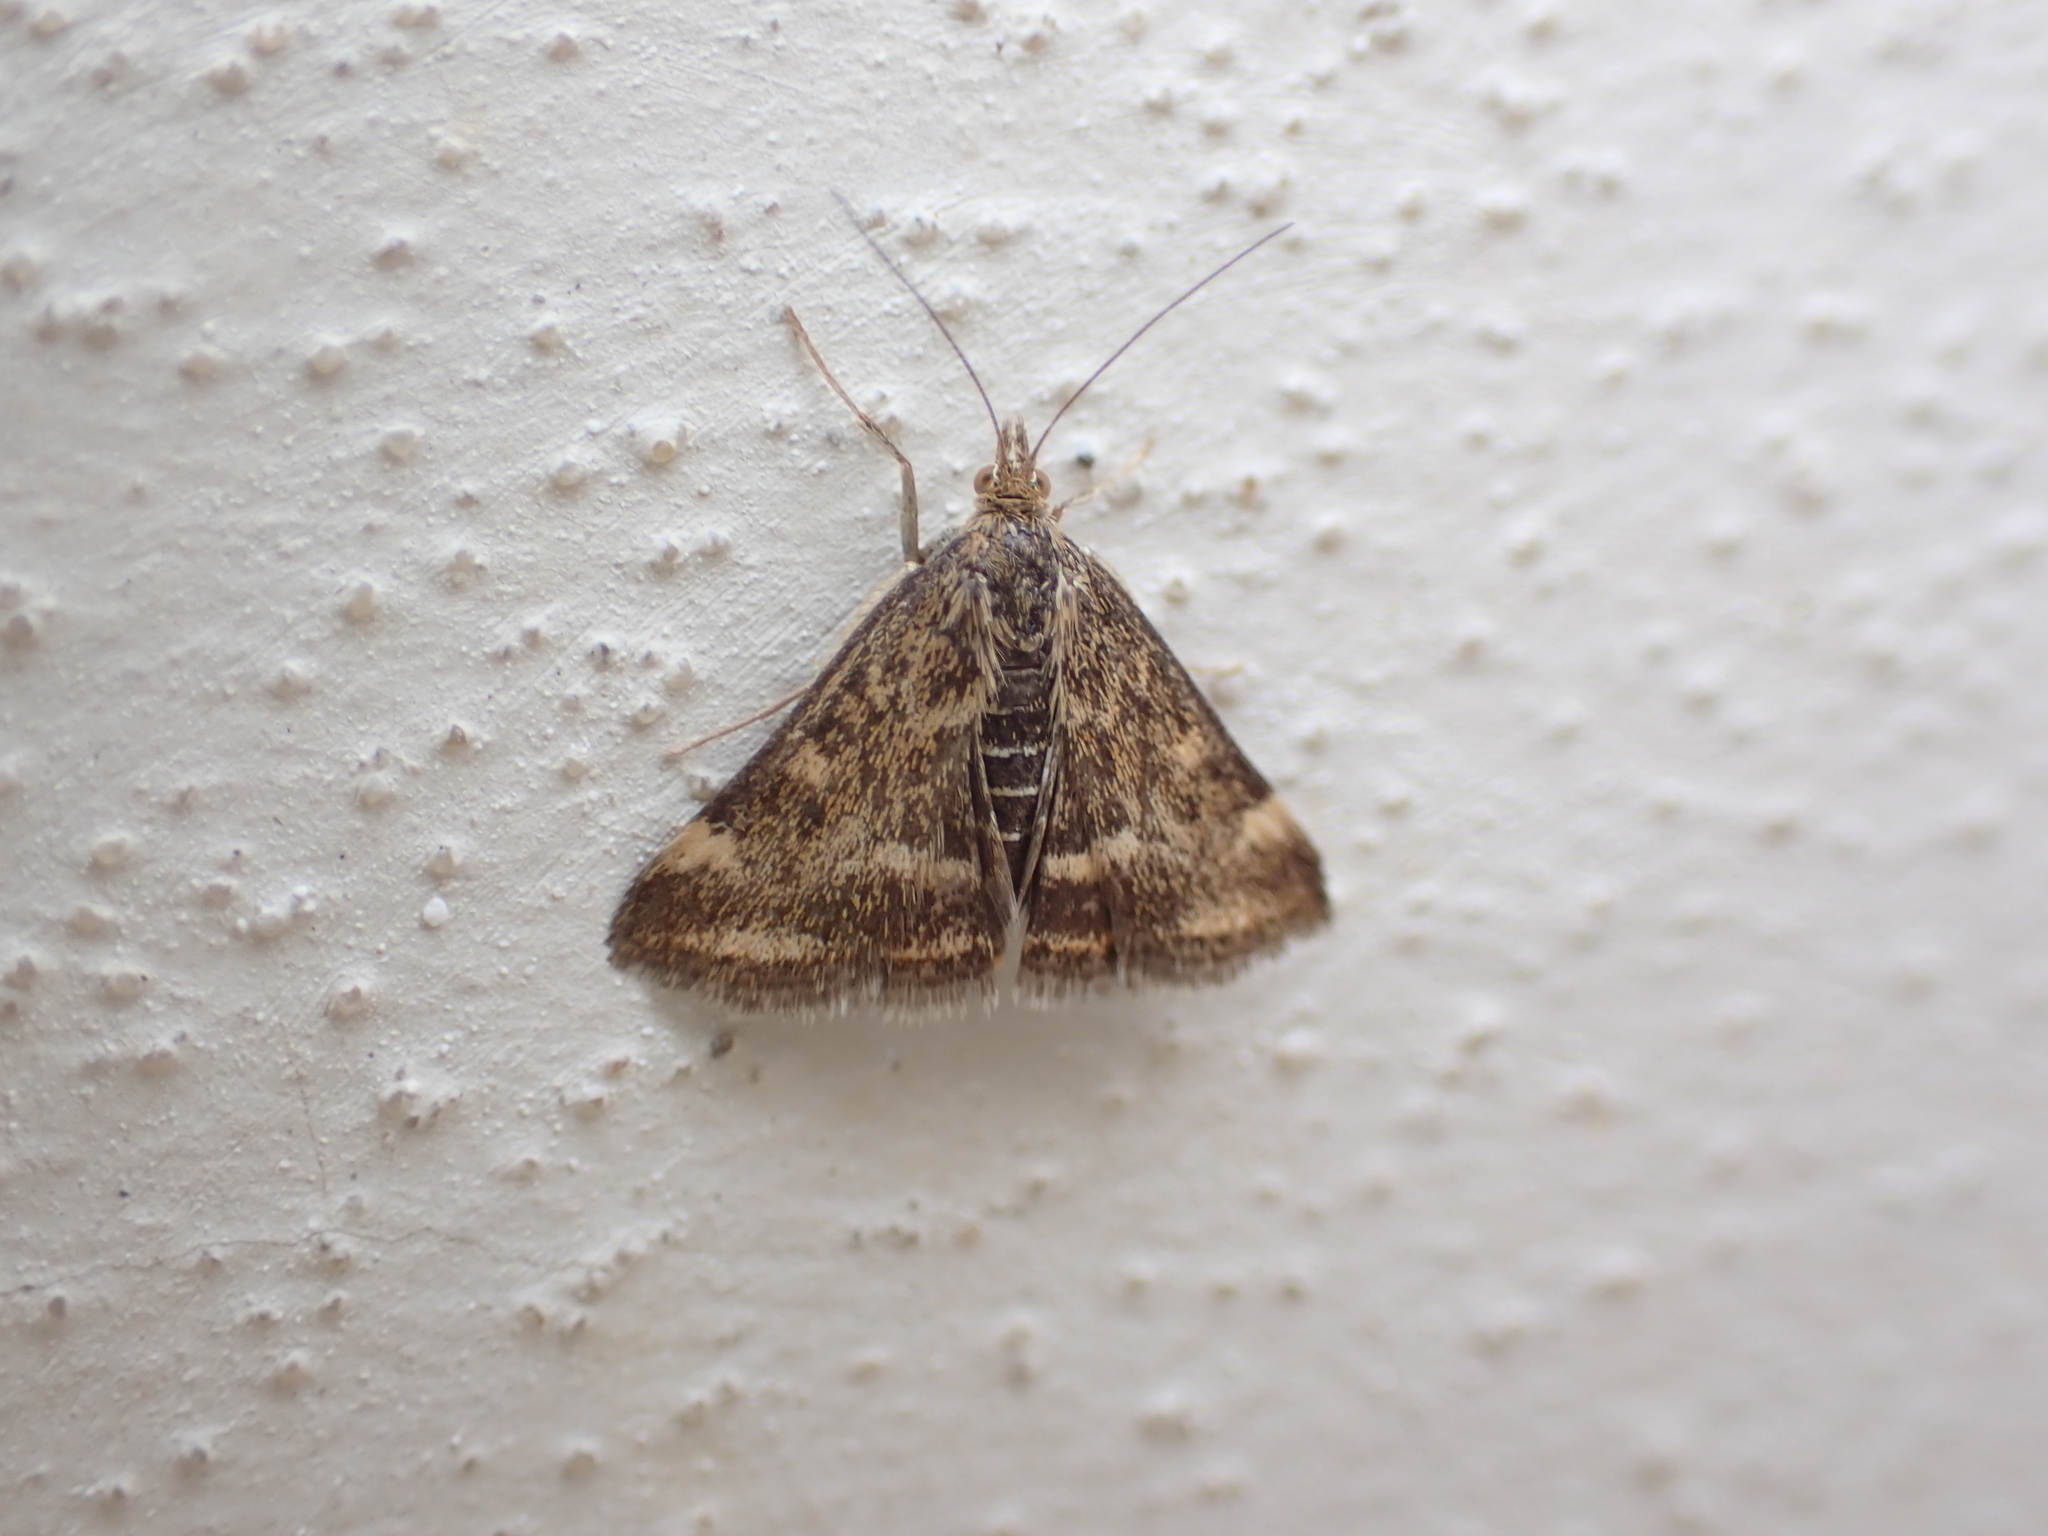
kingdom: Animalia
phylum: Arthropoda
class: Insecta
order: Lepidoptera
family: Crambidae
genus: Pyrausta
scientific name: Pyrausta despicata
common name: Straw-barred pearl
